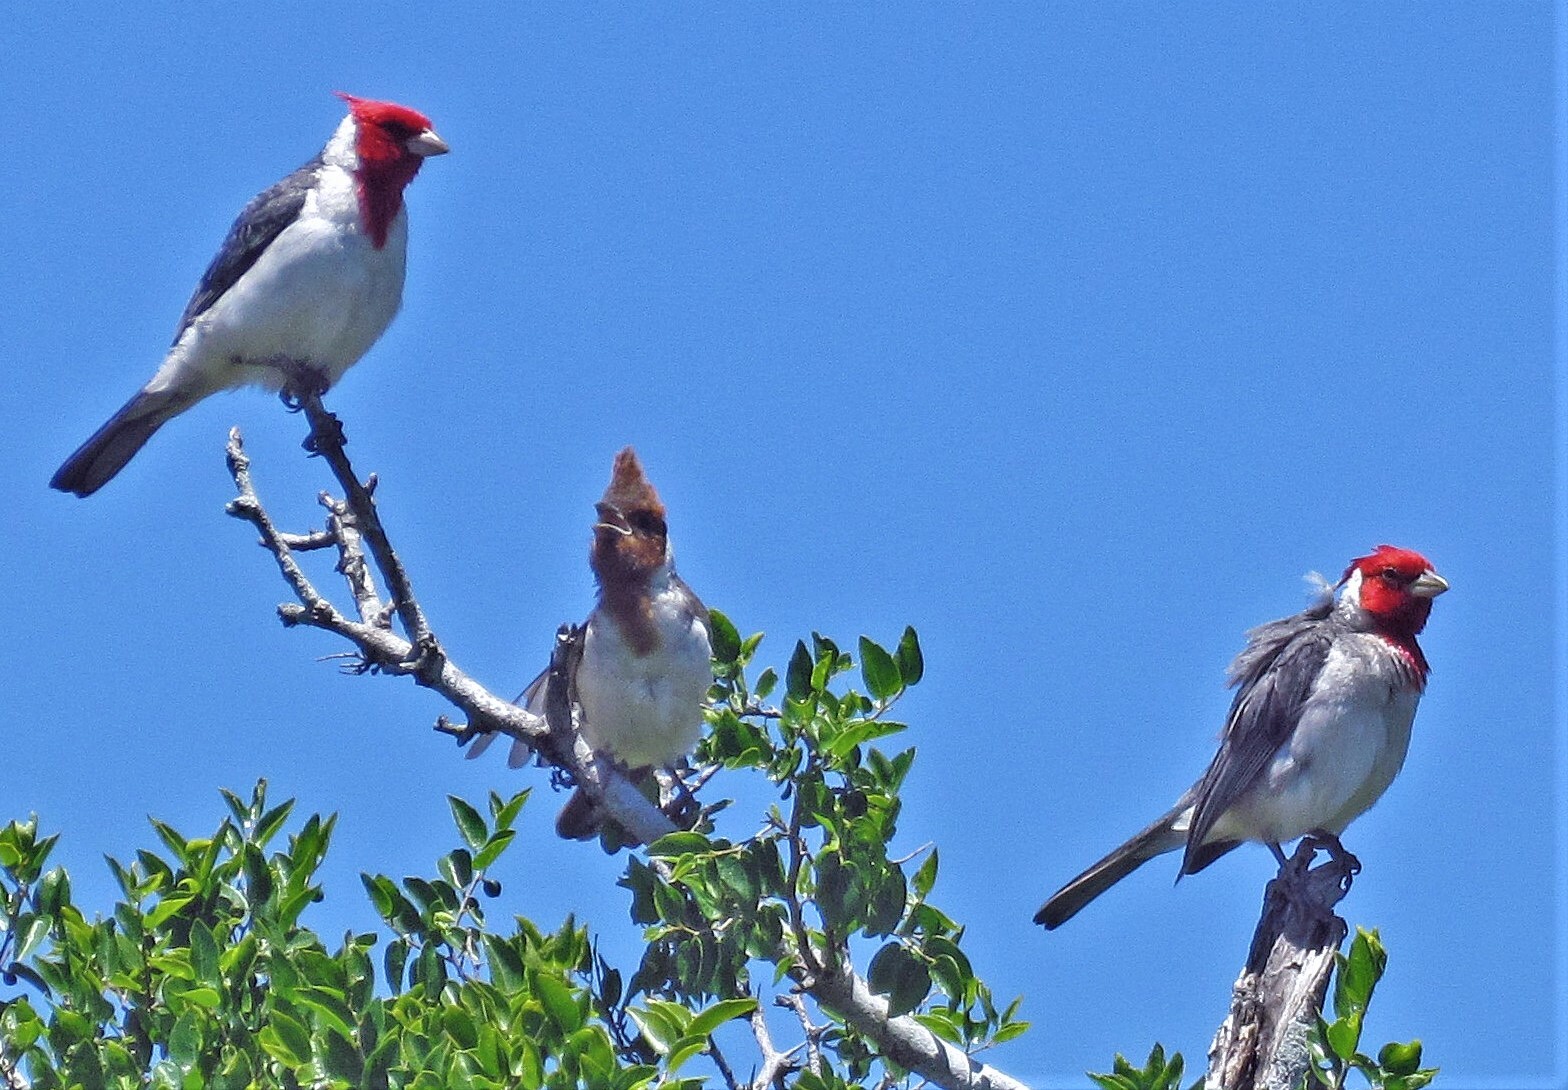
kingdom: Animalia
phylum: Chordata
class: Aves
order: Passeriformes
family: Thraupidae
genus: Paroaria
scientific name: Paroaria coronata
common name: Red-crested cardinal
